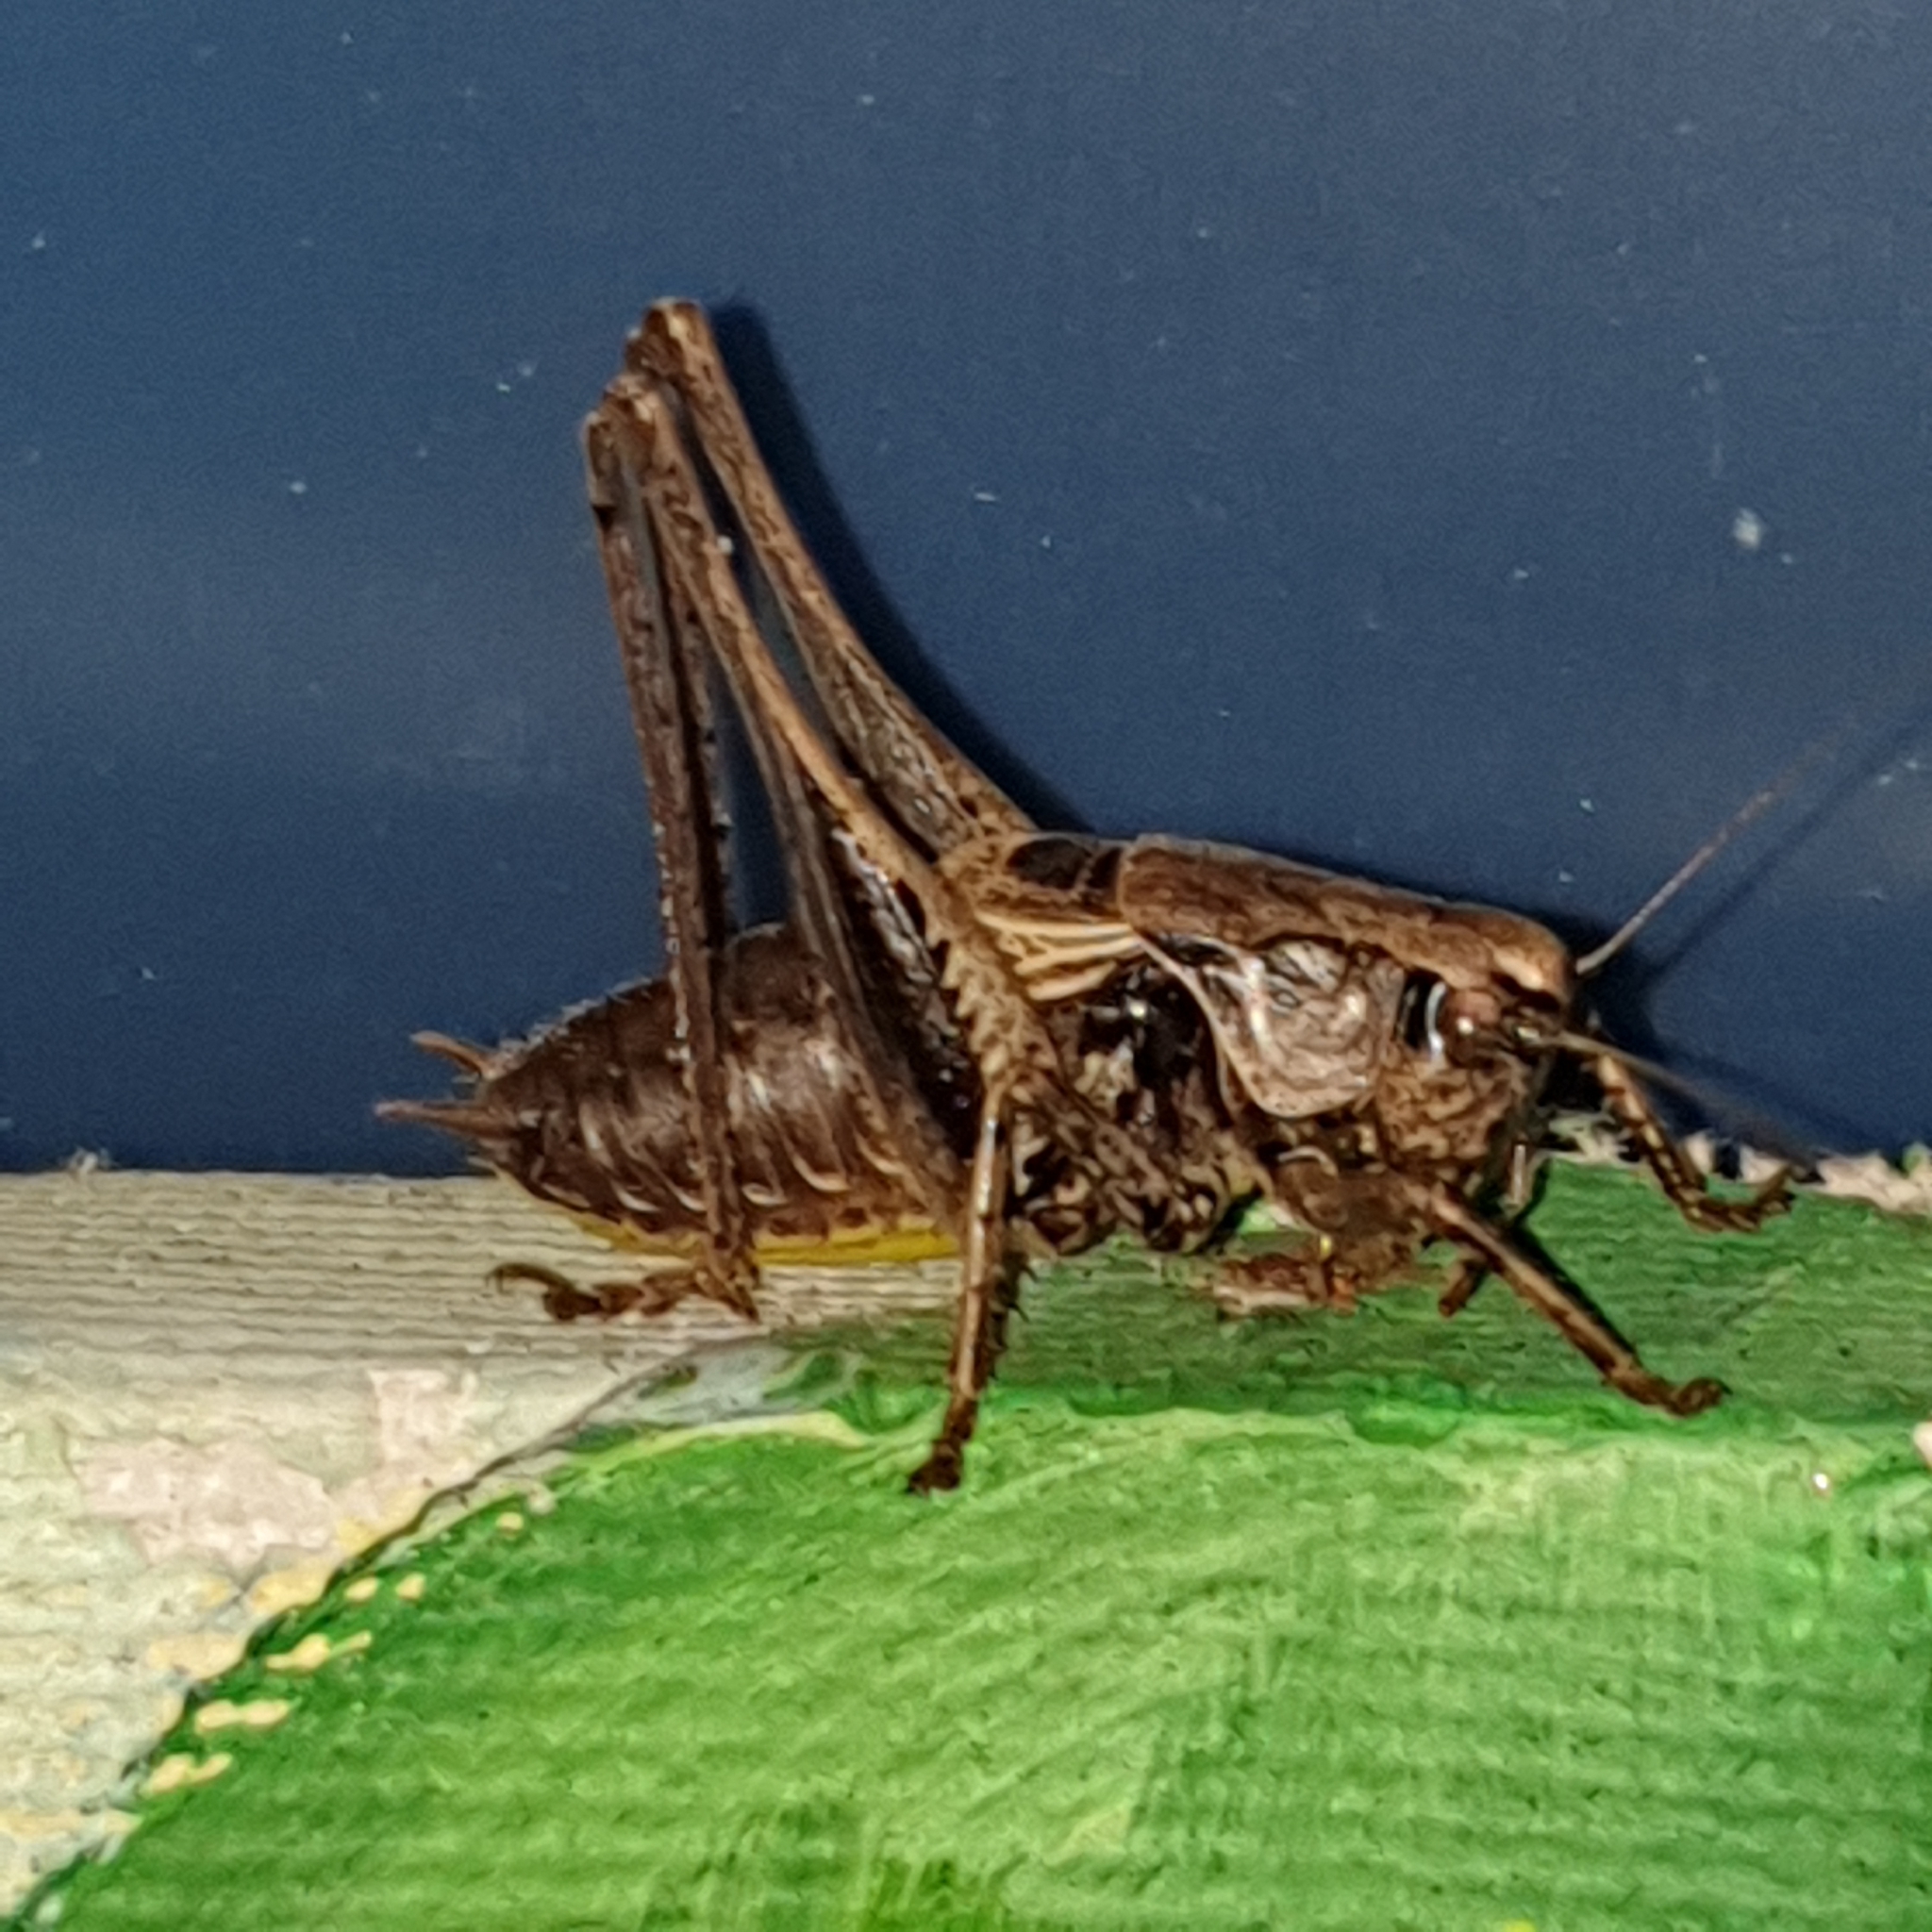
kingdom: Animalia
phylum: Arthropoda
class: Insecta
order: Orthoptera
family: Tettigoniidae
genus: Pholidoptera
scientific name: Pholidoptera griseoaptera
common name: Dark bush-cricket
